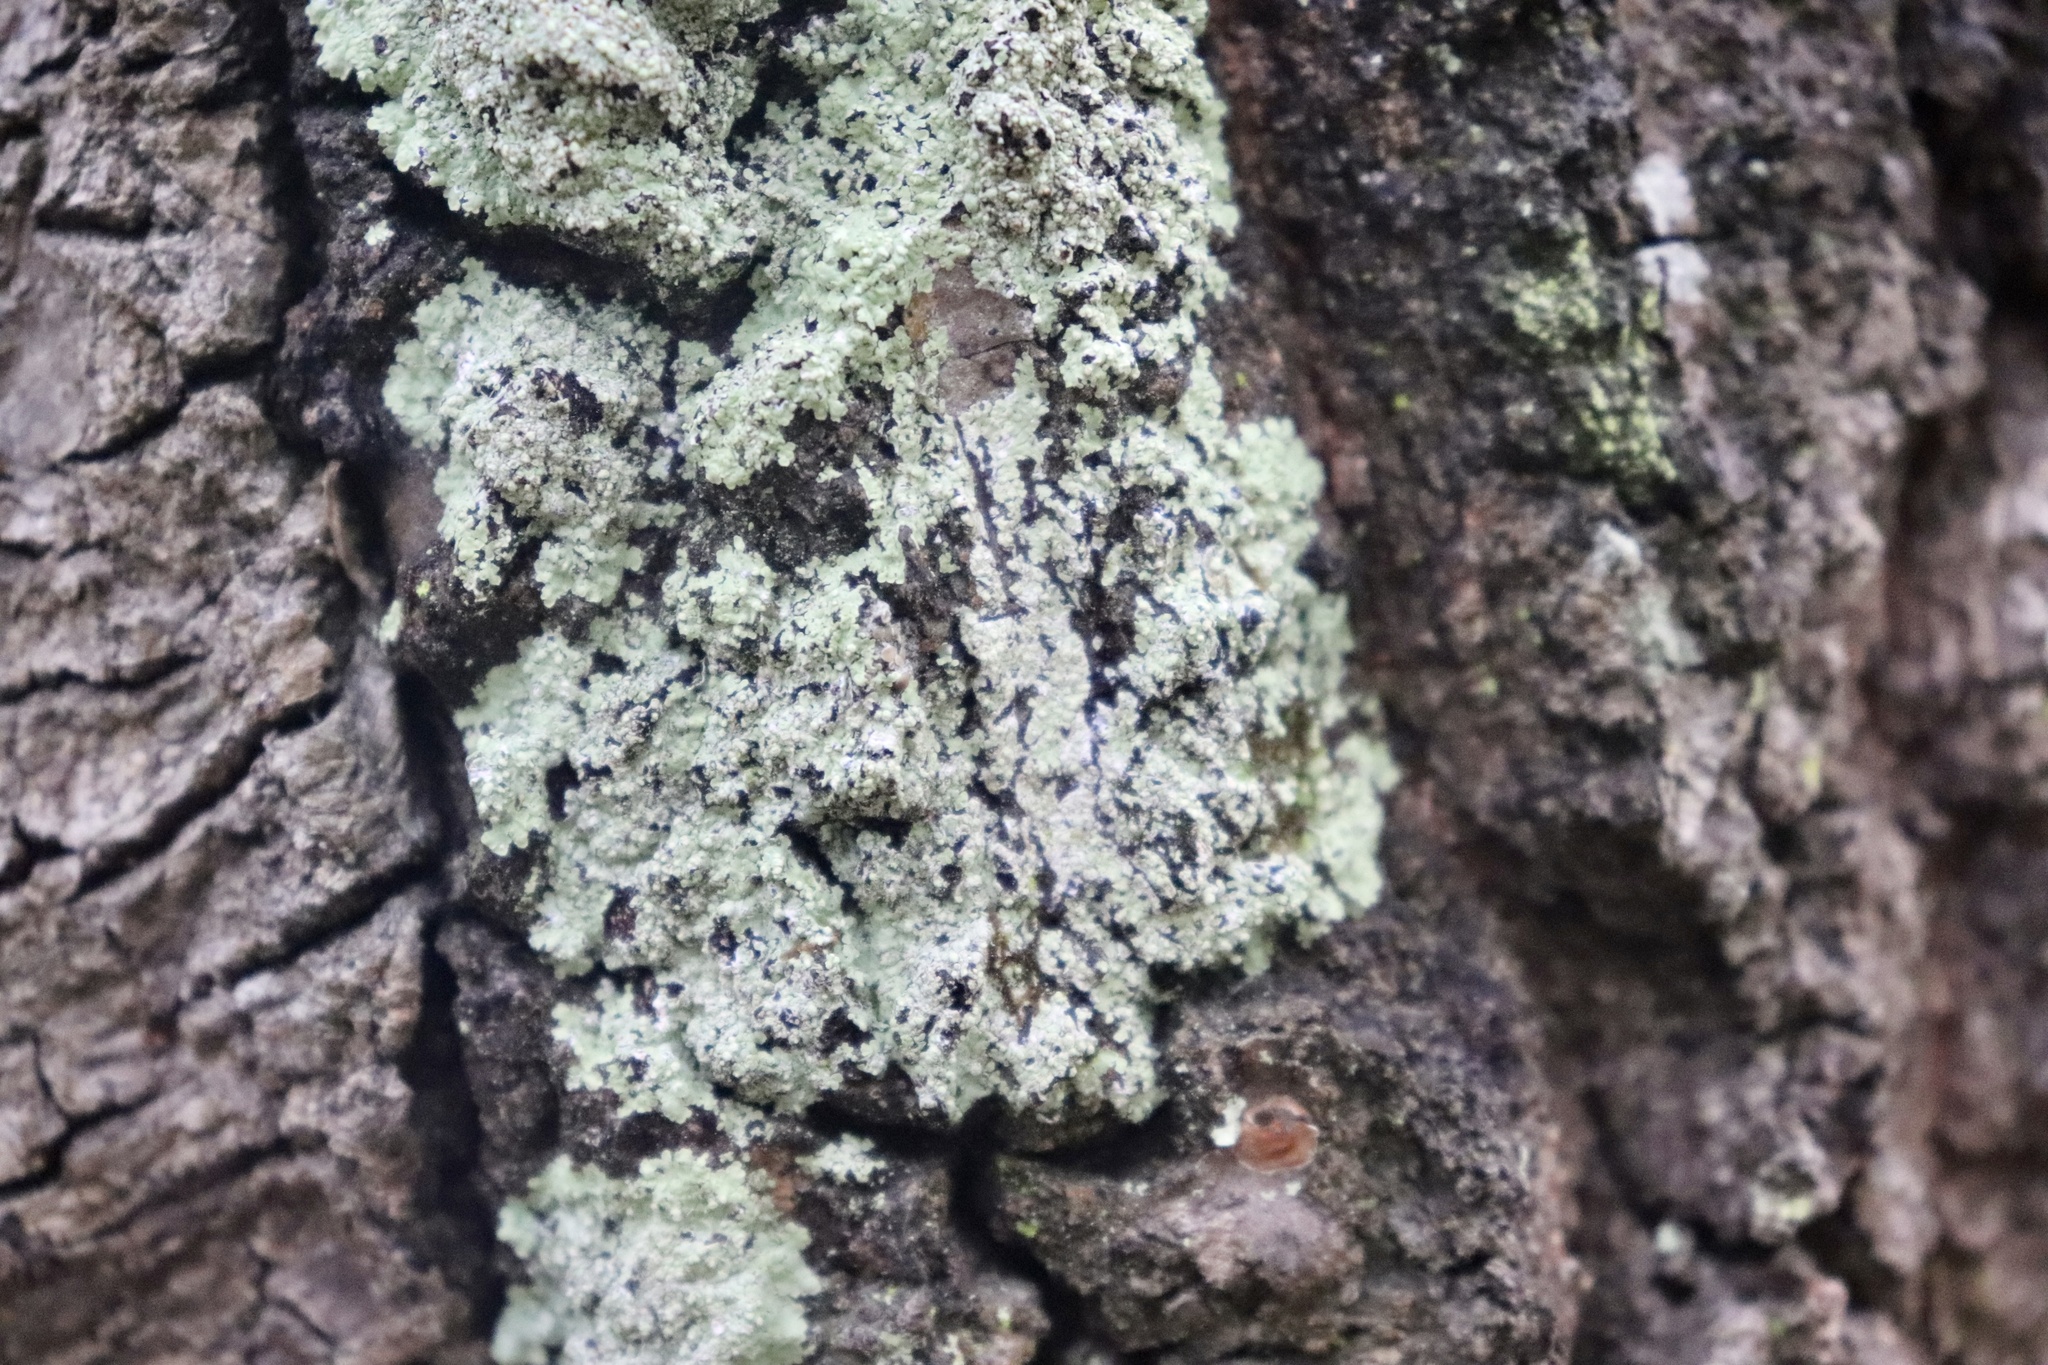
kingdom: Fungi
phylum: Ascomycota
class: Lecanoromycetes
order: Caliciales
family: Physciaceae
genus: Physcia
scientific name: Physcia americana
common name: American rosette lichen
